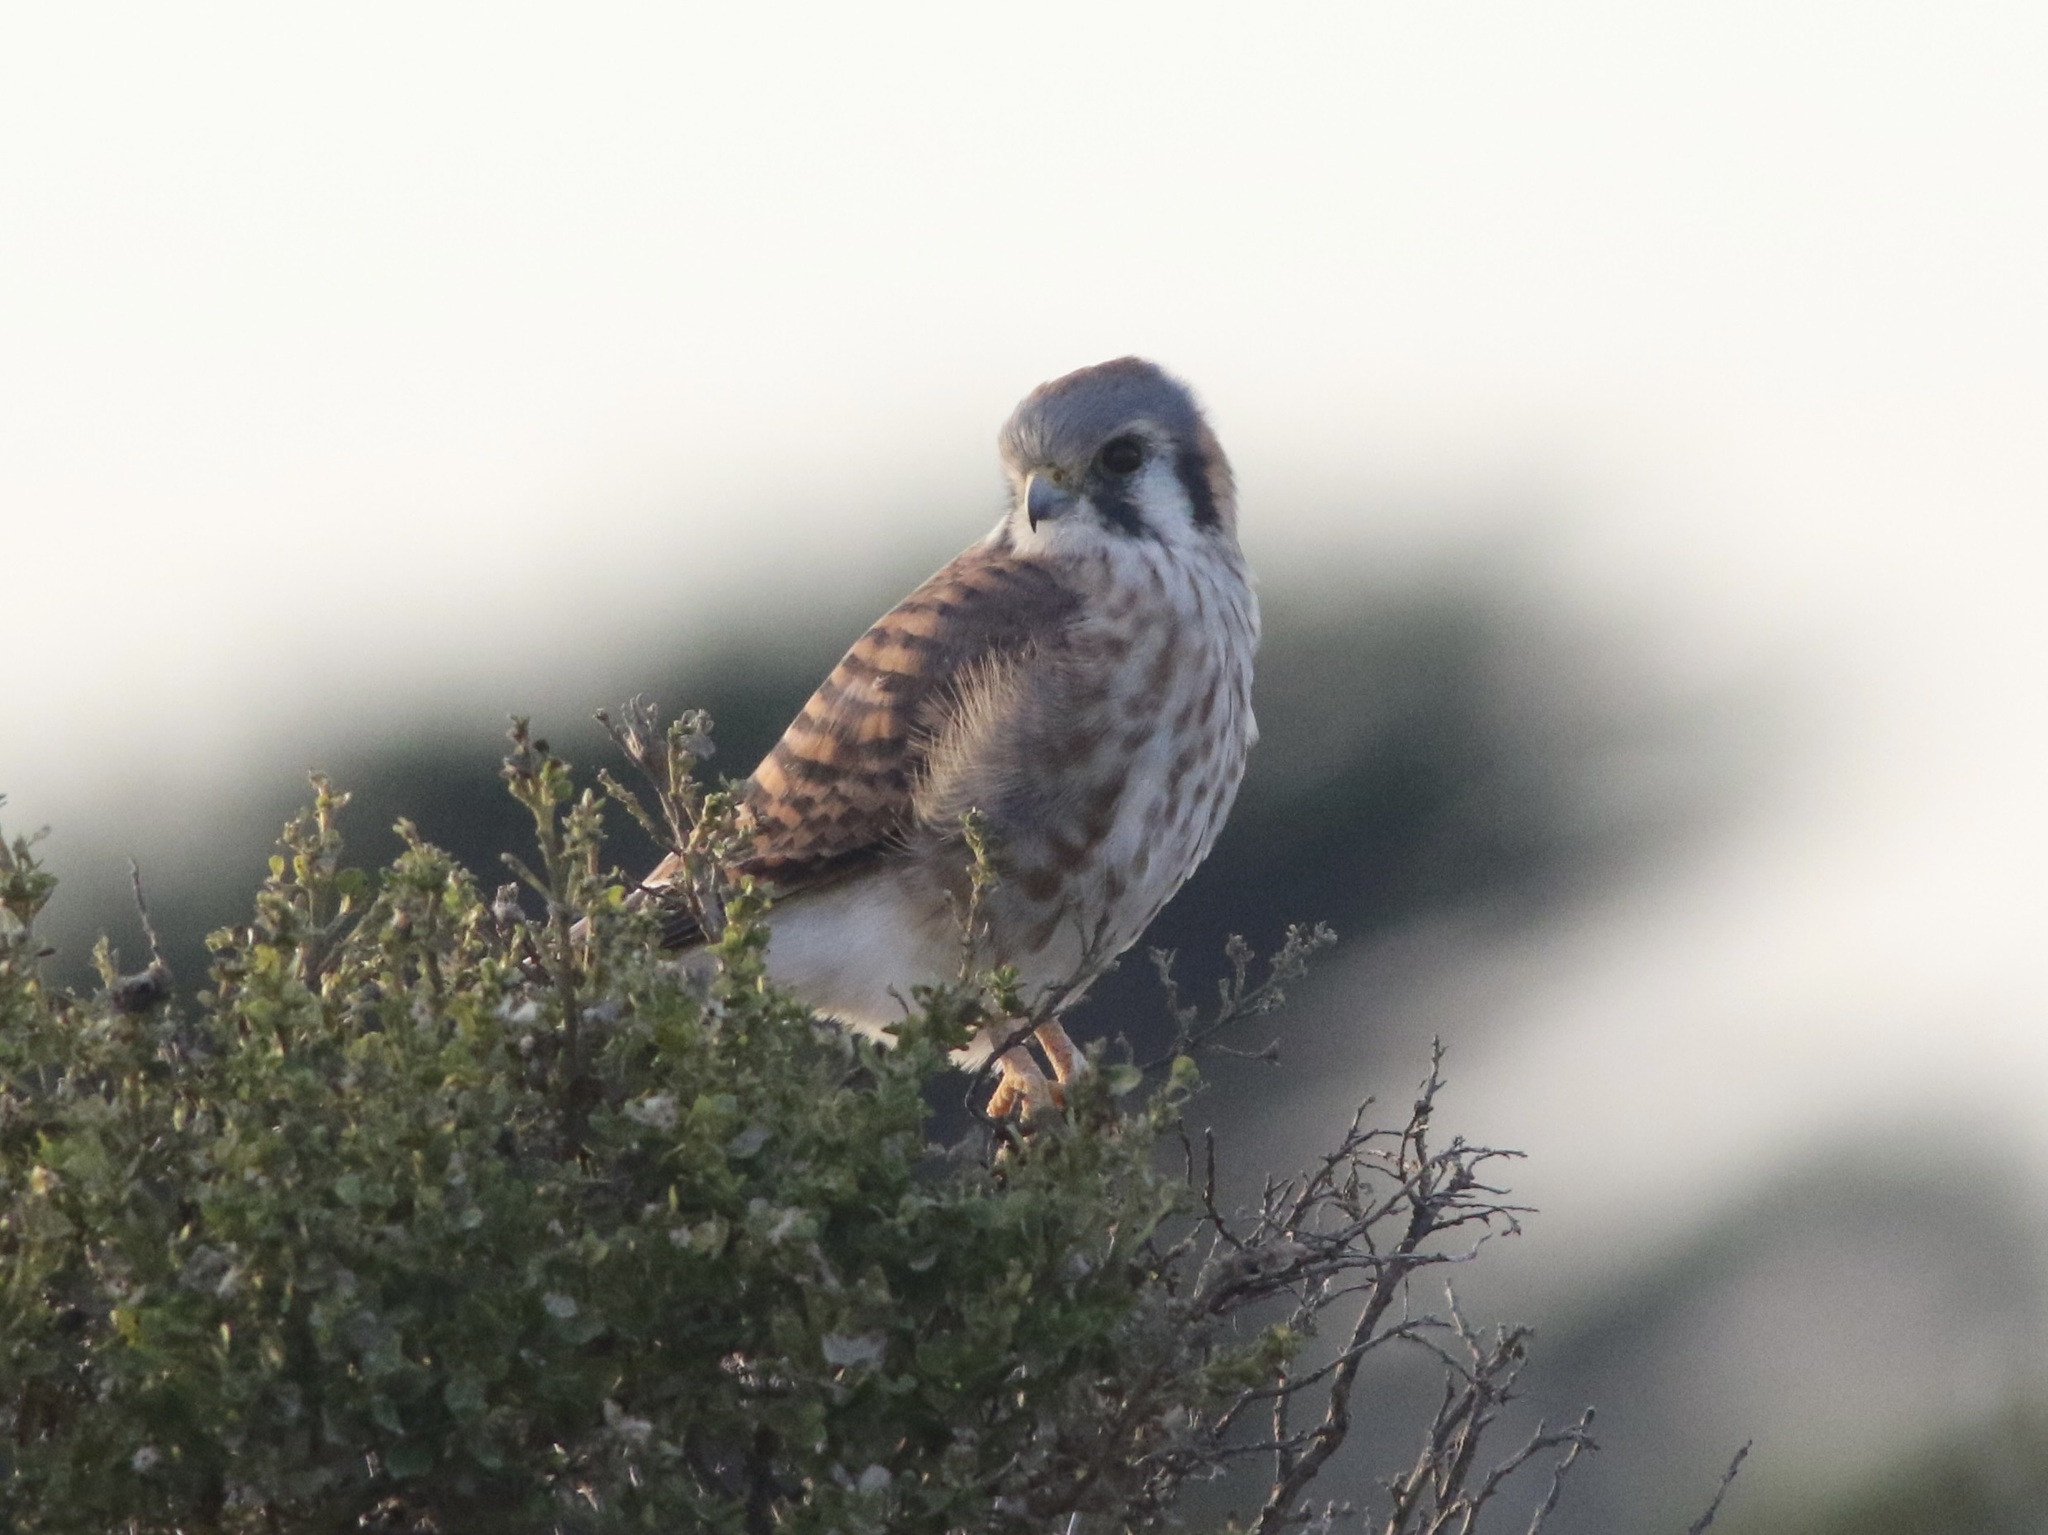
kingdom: Animalia
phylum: Chordata
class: Aves
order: Falconiformes
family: Falconidae
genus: Falco
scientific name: Falco sparverius
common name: American kestrel
